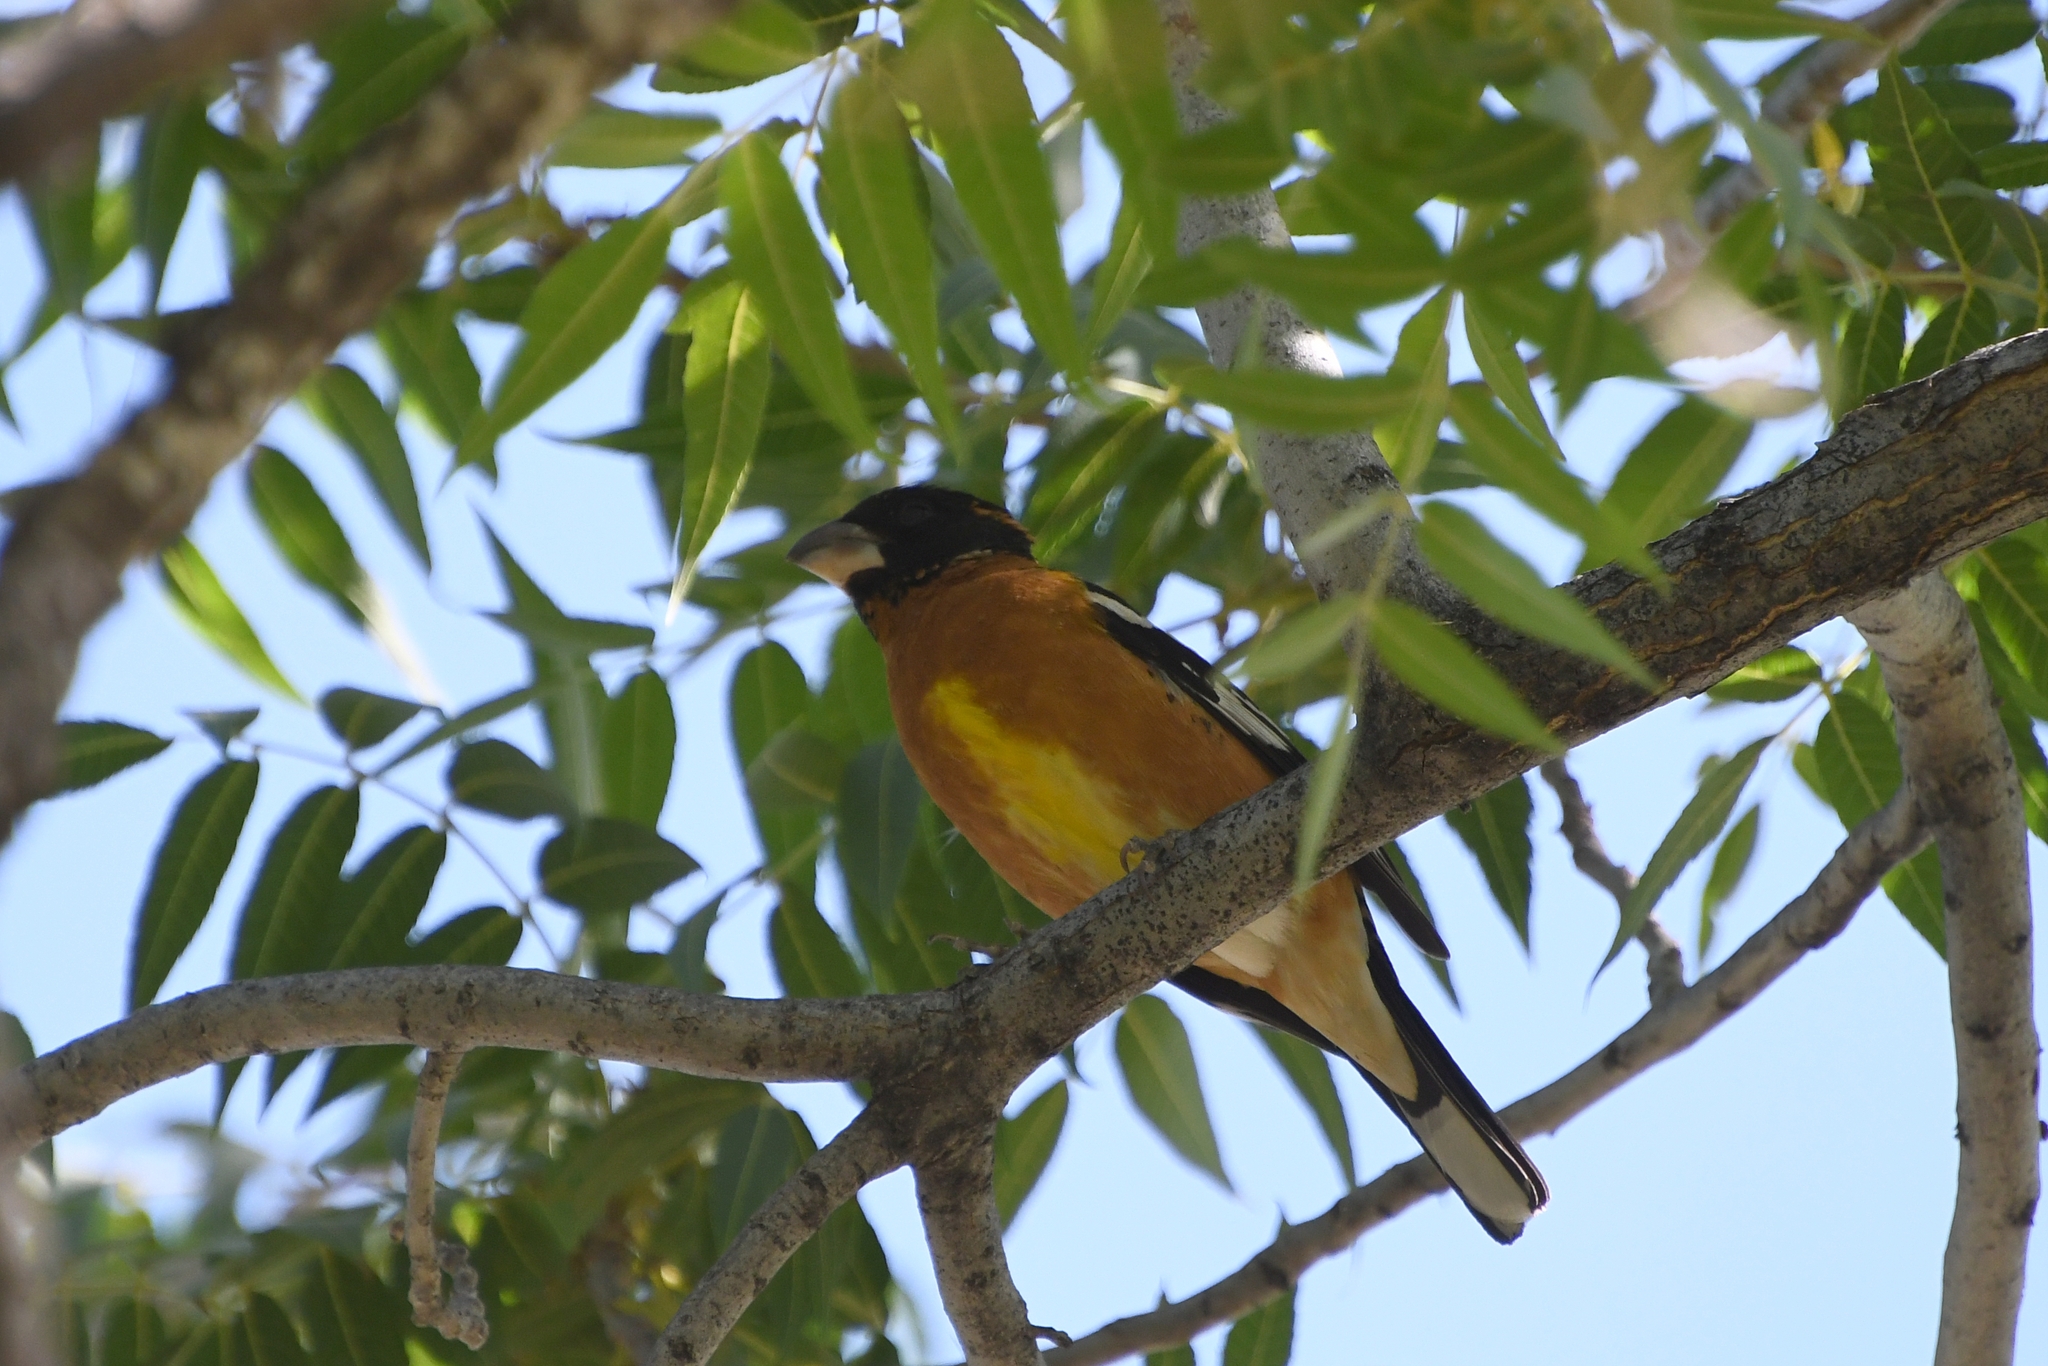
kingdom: Animalia
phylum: Chordata
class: Aves
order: Passeriformes
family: Cardinalidae
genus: Pheucticus
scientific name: Pheucticus melanocephalus
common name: Black-headed grosbeak
